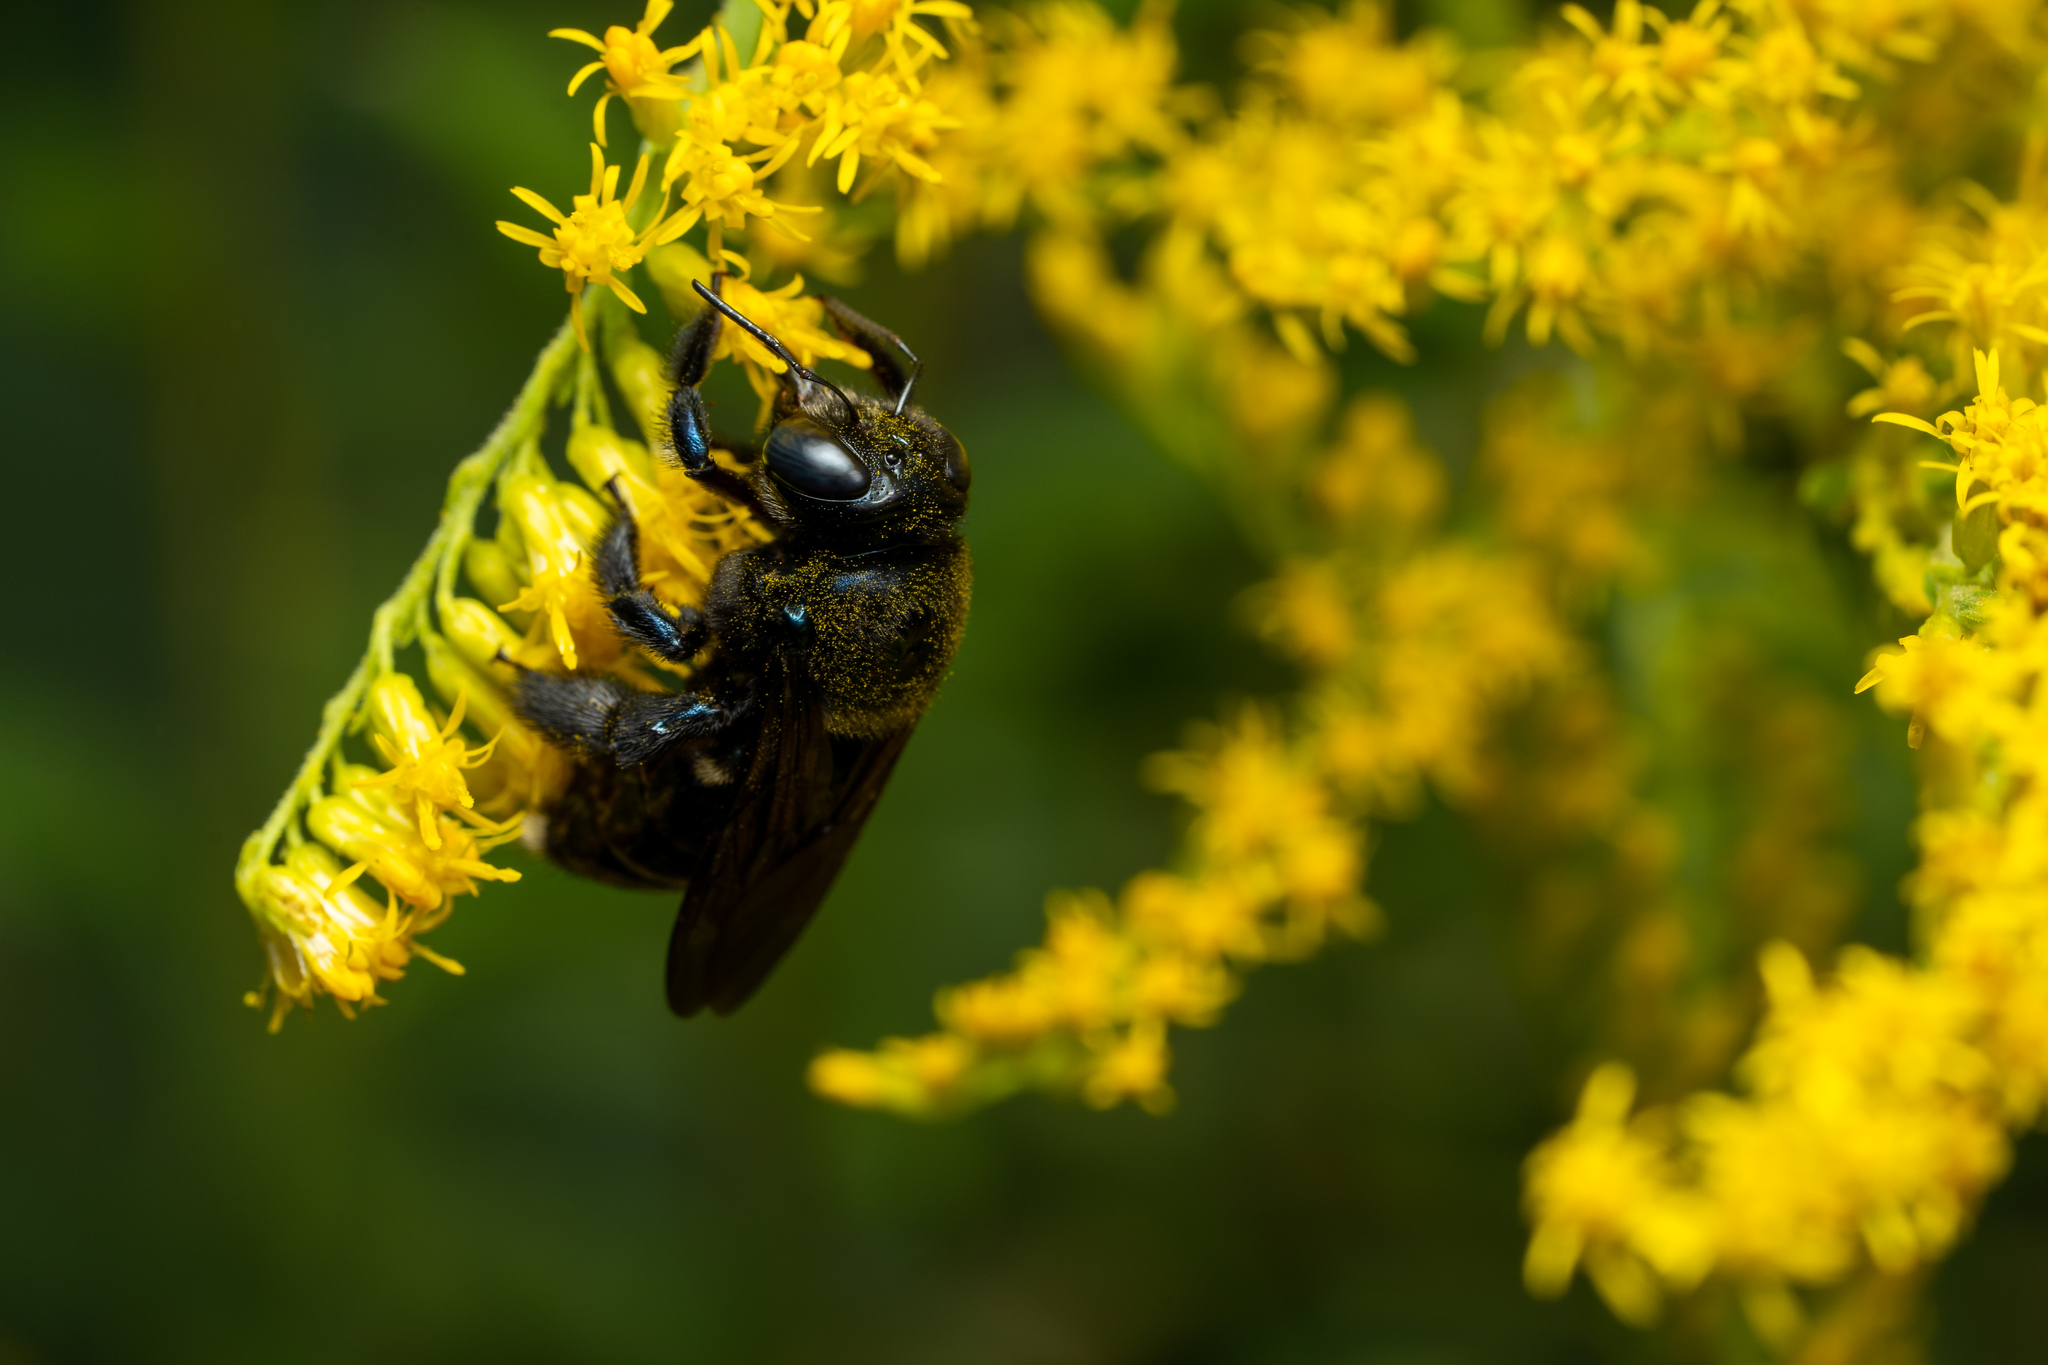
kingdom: Animalia
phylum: Arthropoda
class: Insecta
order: Hymenoptera
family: Apidae
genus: Xylocopa
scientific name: Xylocopa micans
